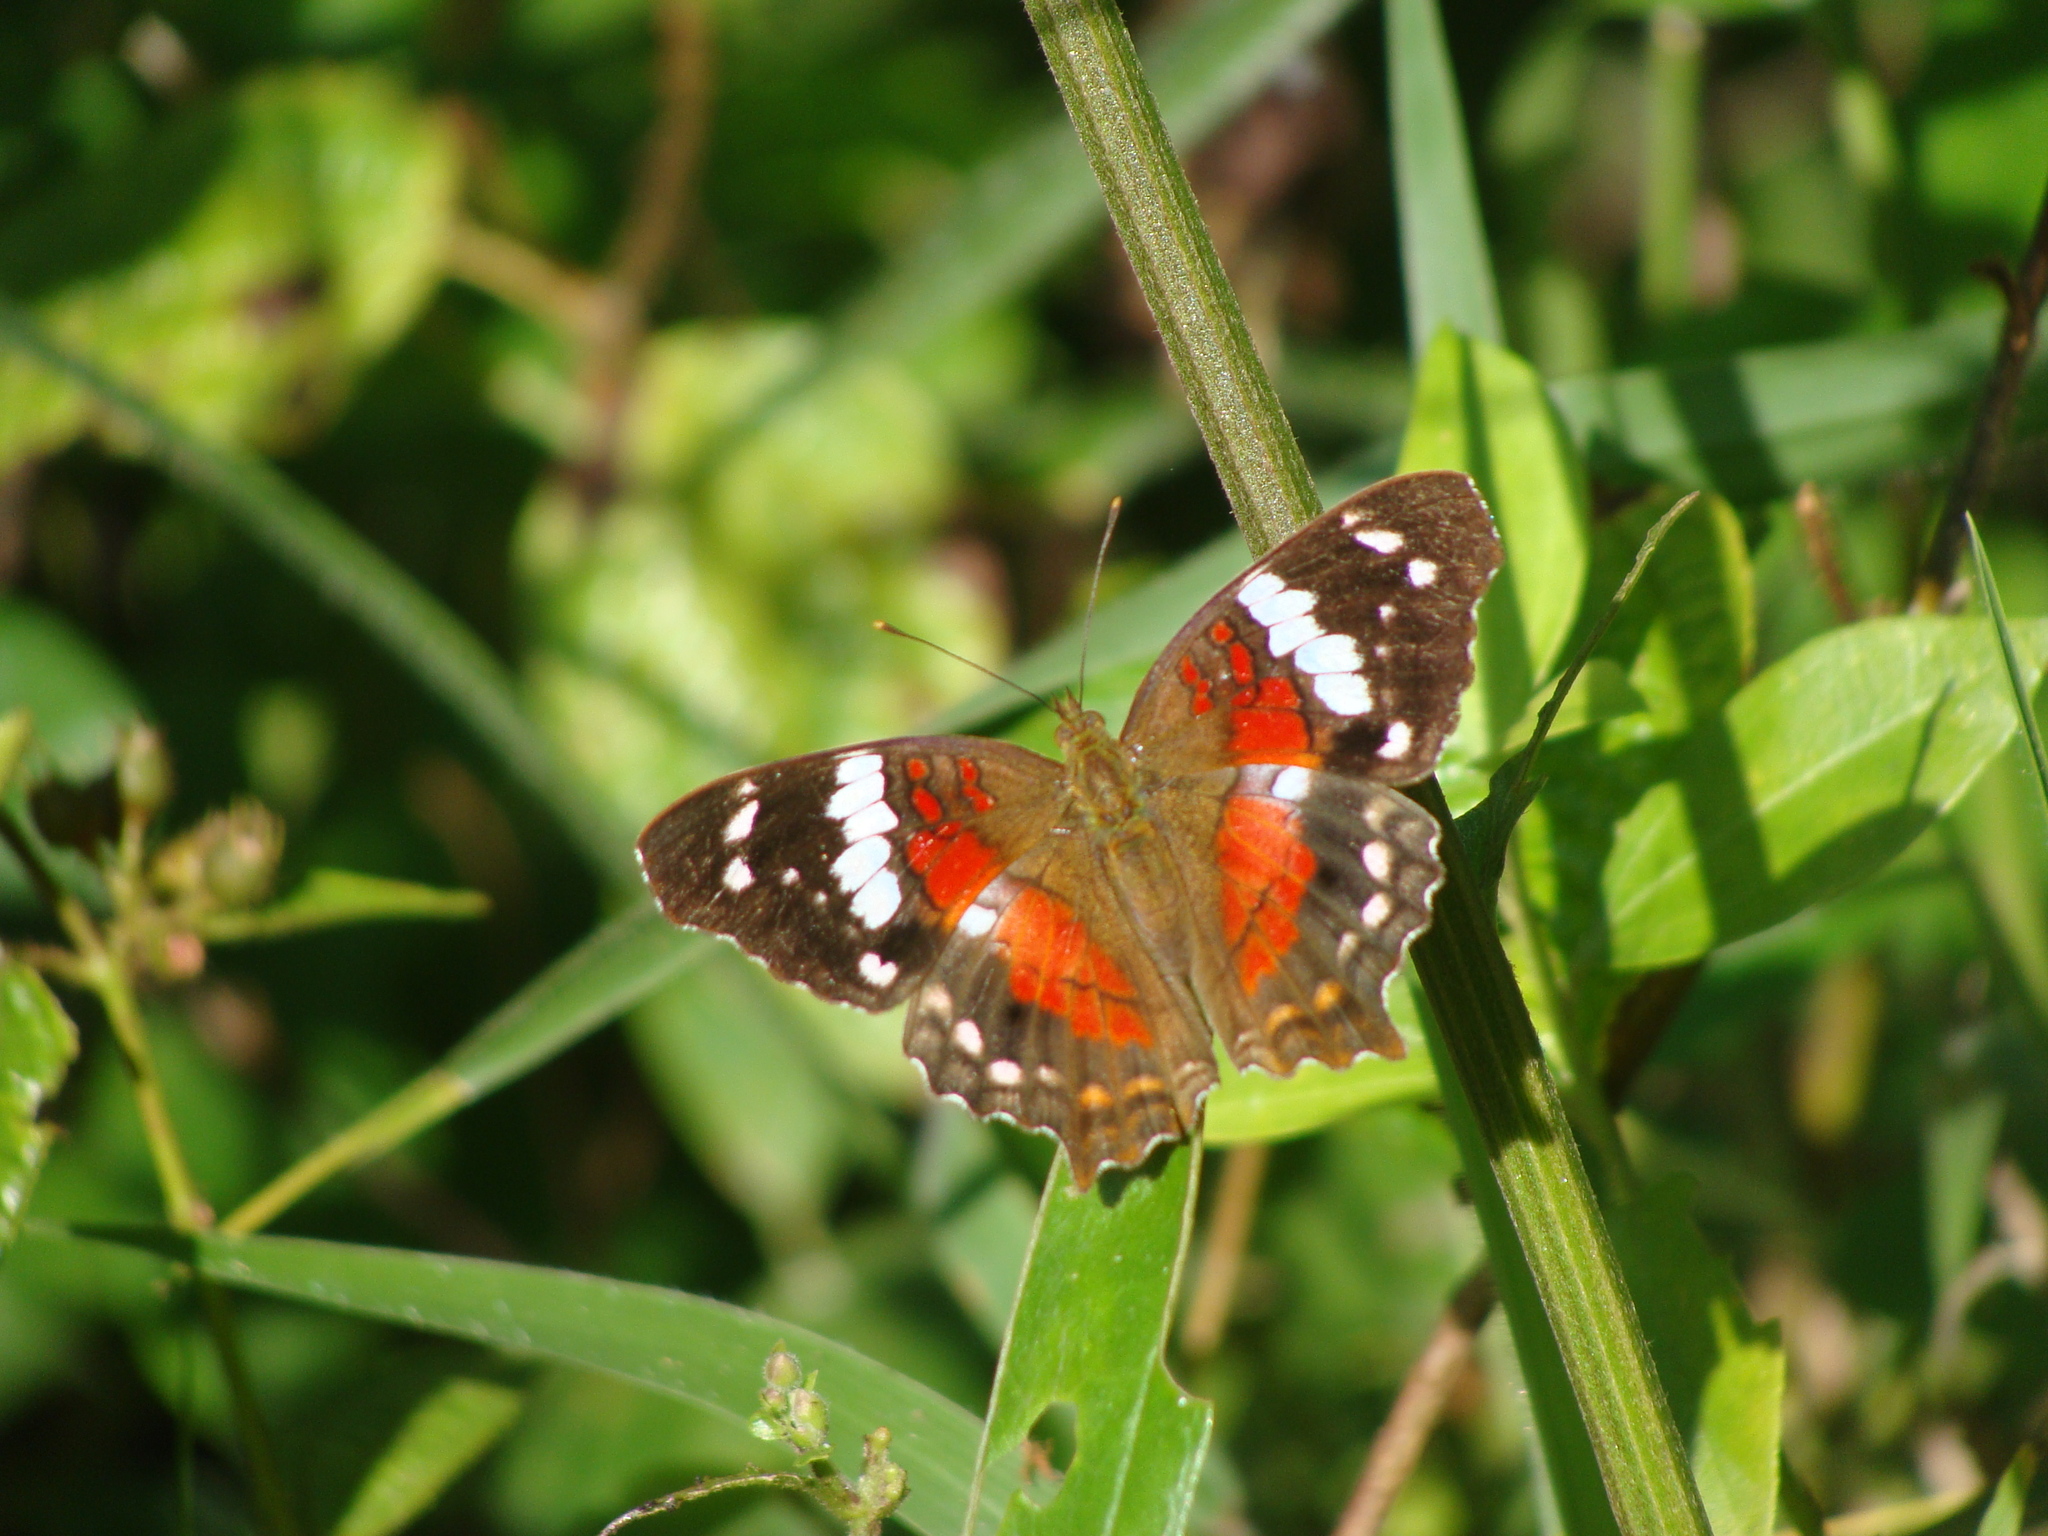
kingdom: Animalia
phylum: Arthropoda
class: Insecta
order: Lepidoptera
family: Nymphalidae
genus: Anartia
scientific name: Anartia amathea
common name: Red peacock
